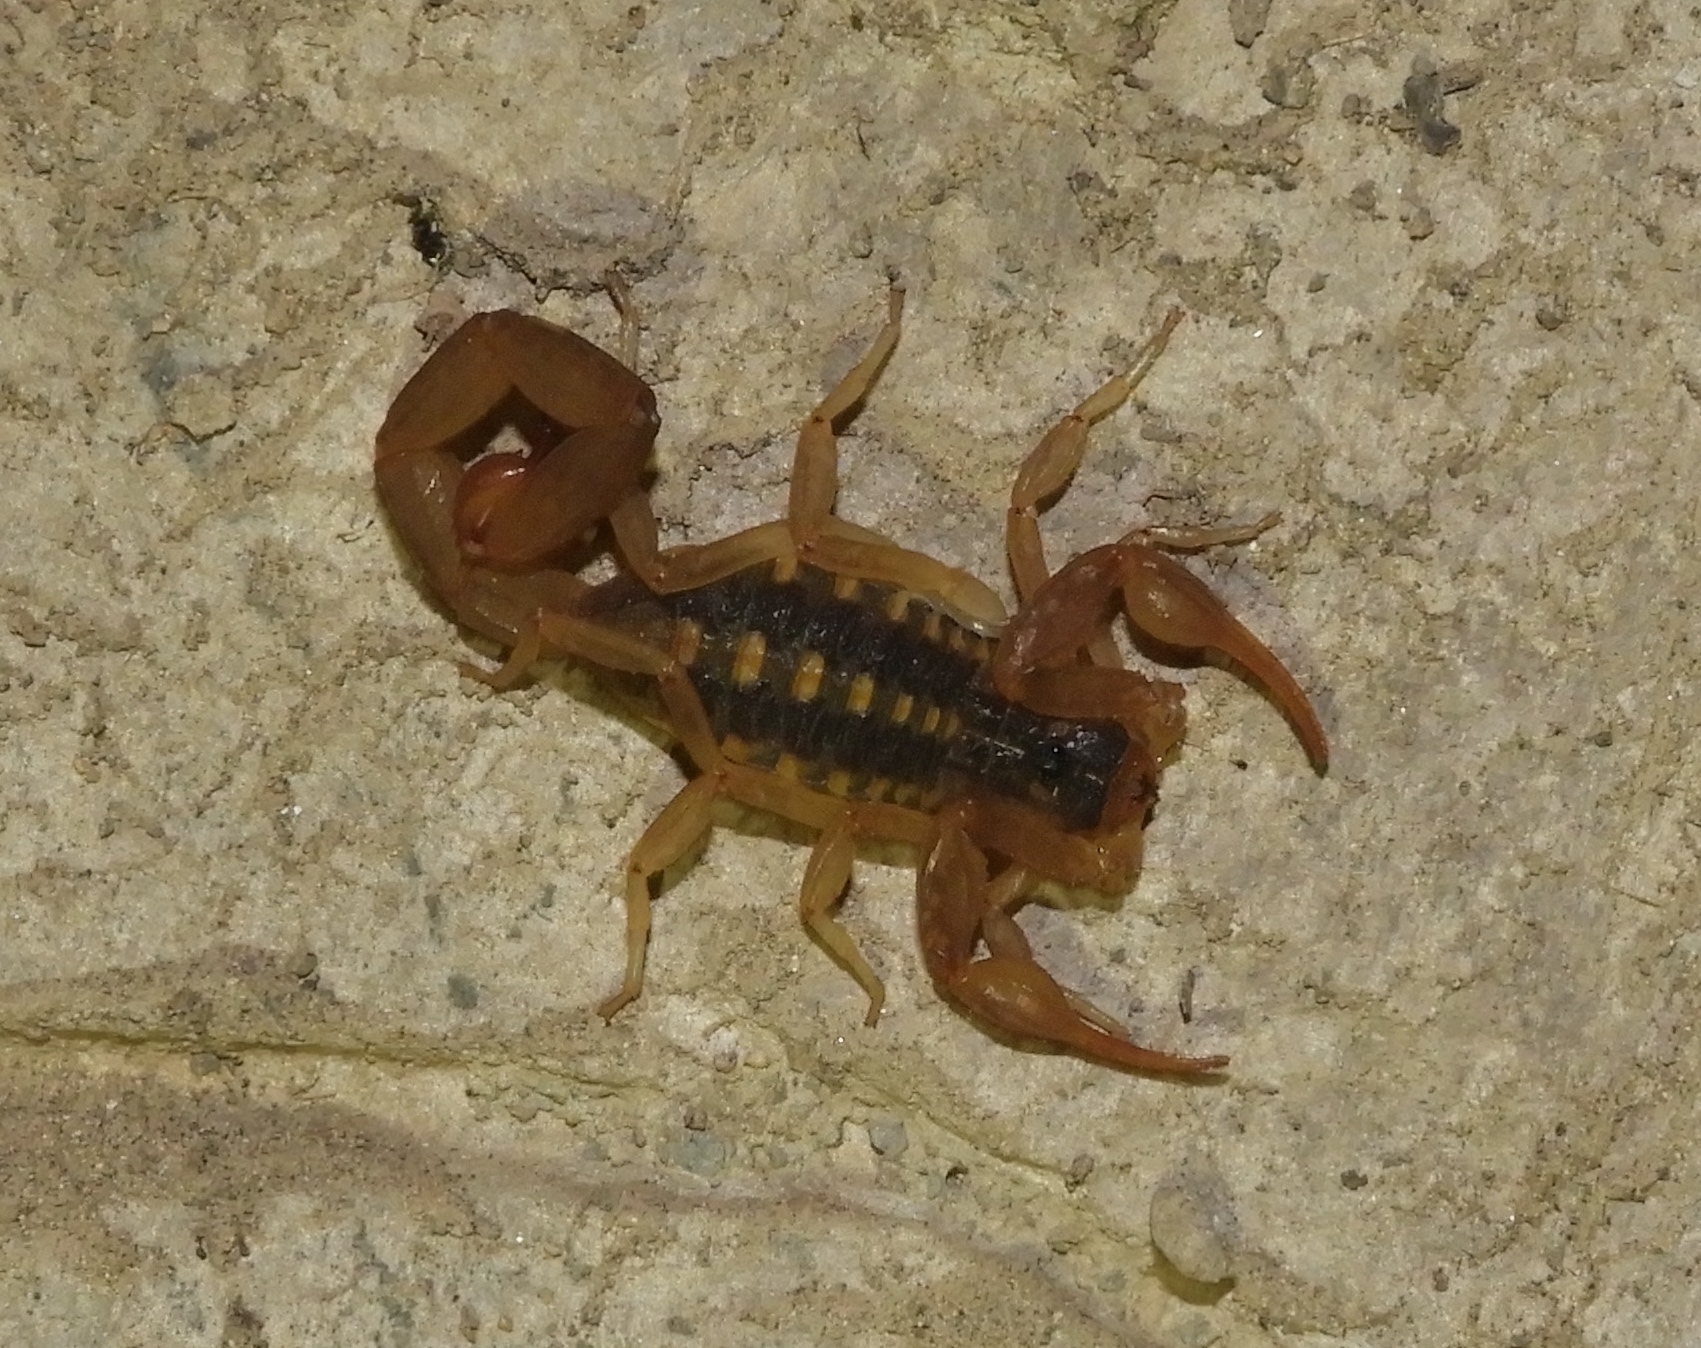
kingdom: Animalia
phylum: Arthropoda
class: Arachnida
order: Scorpiones
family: Buthidae
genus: Centruroides
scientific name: Centruroides baldazoi
